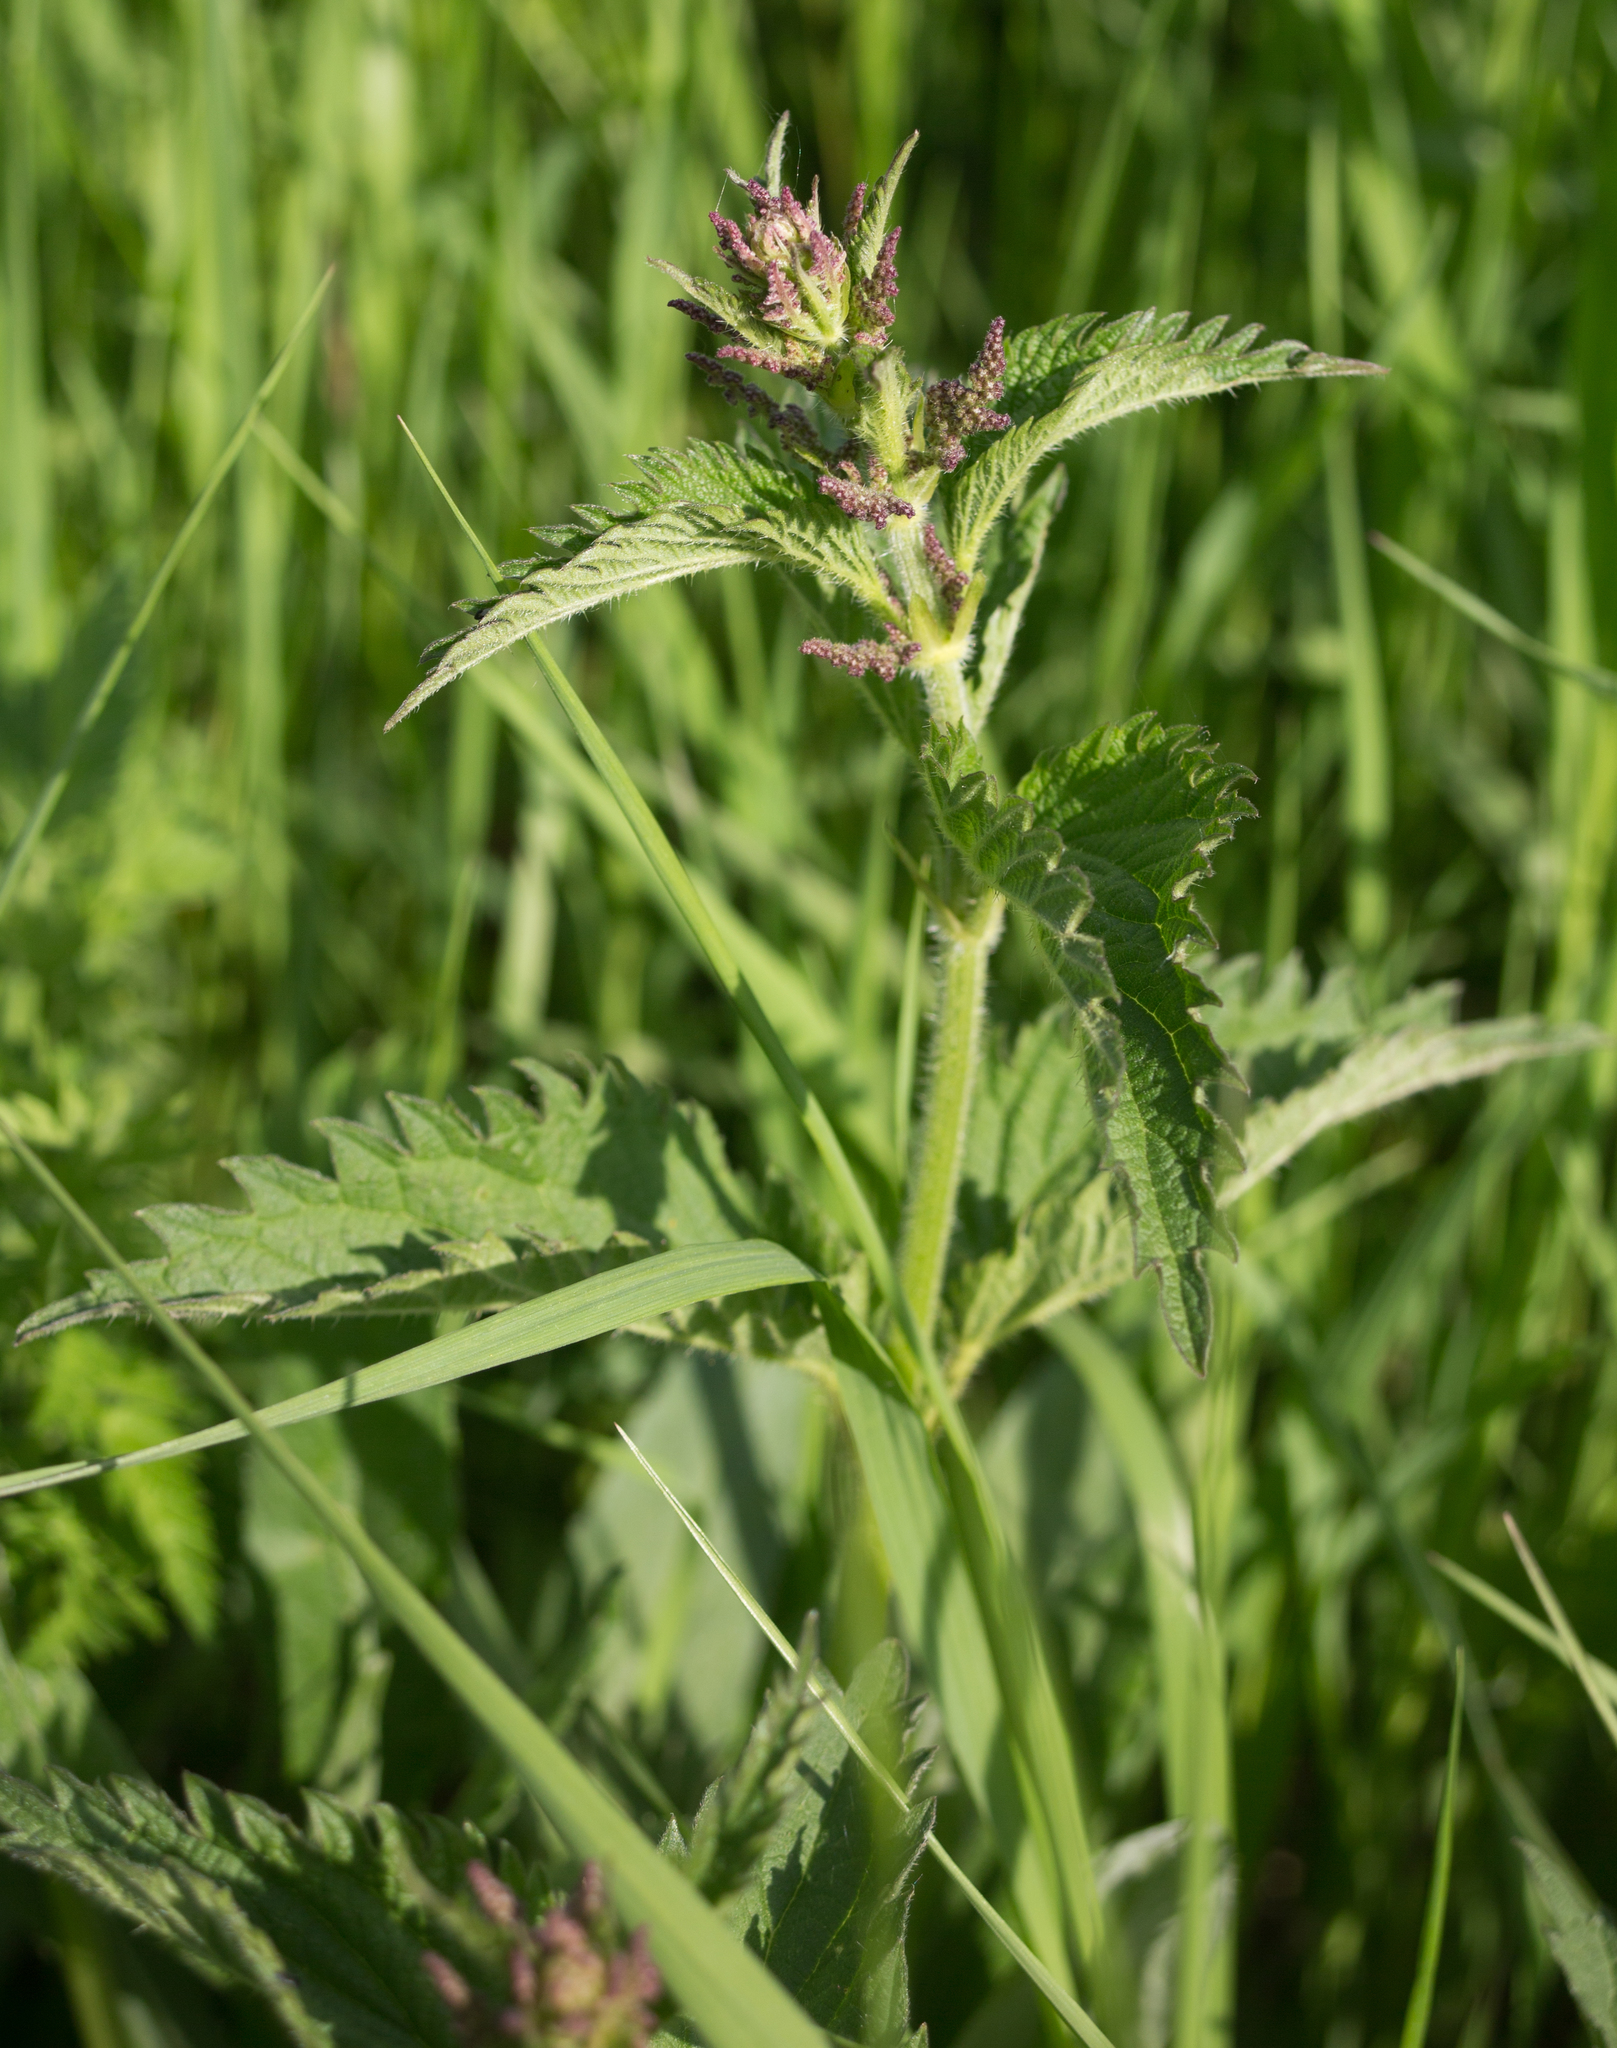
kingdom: Plantae
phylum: Tracheophyta
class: Magnoliopsida
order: Rosales
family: Urticaceae
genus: Urtica
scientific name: Urtica dioica
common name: Common nettle
